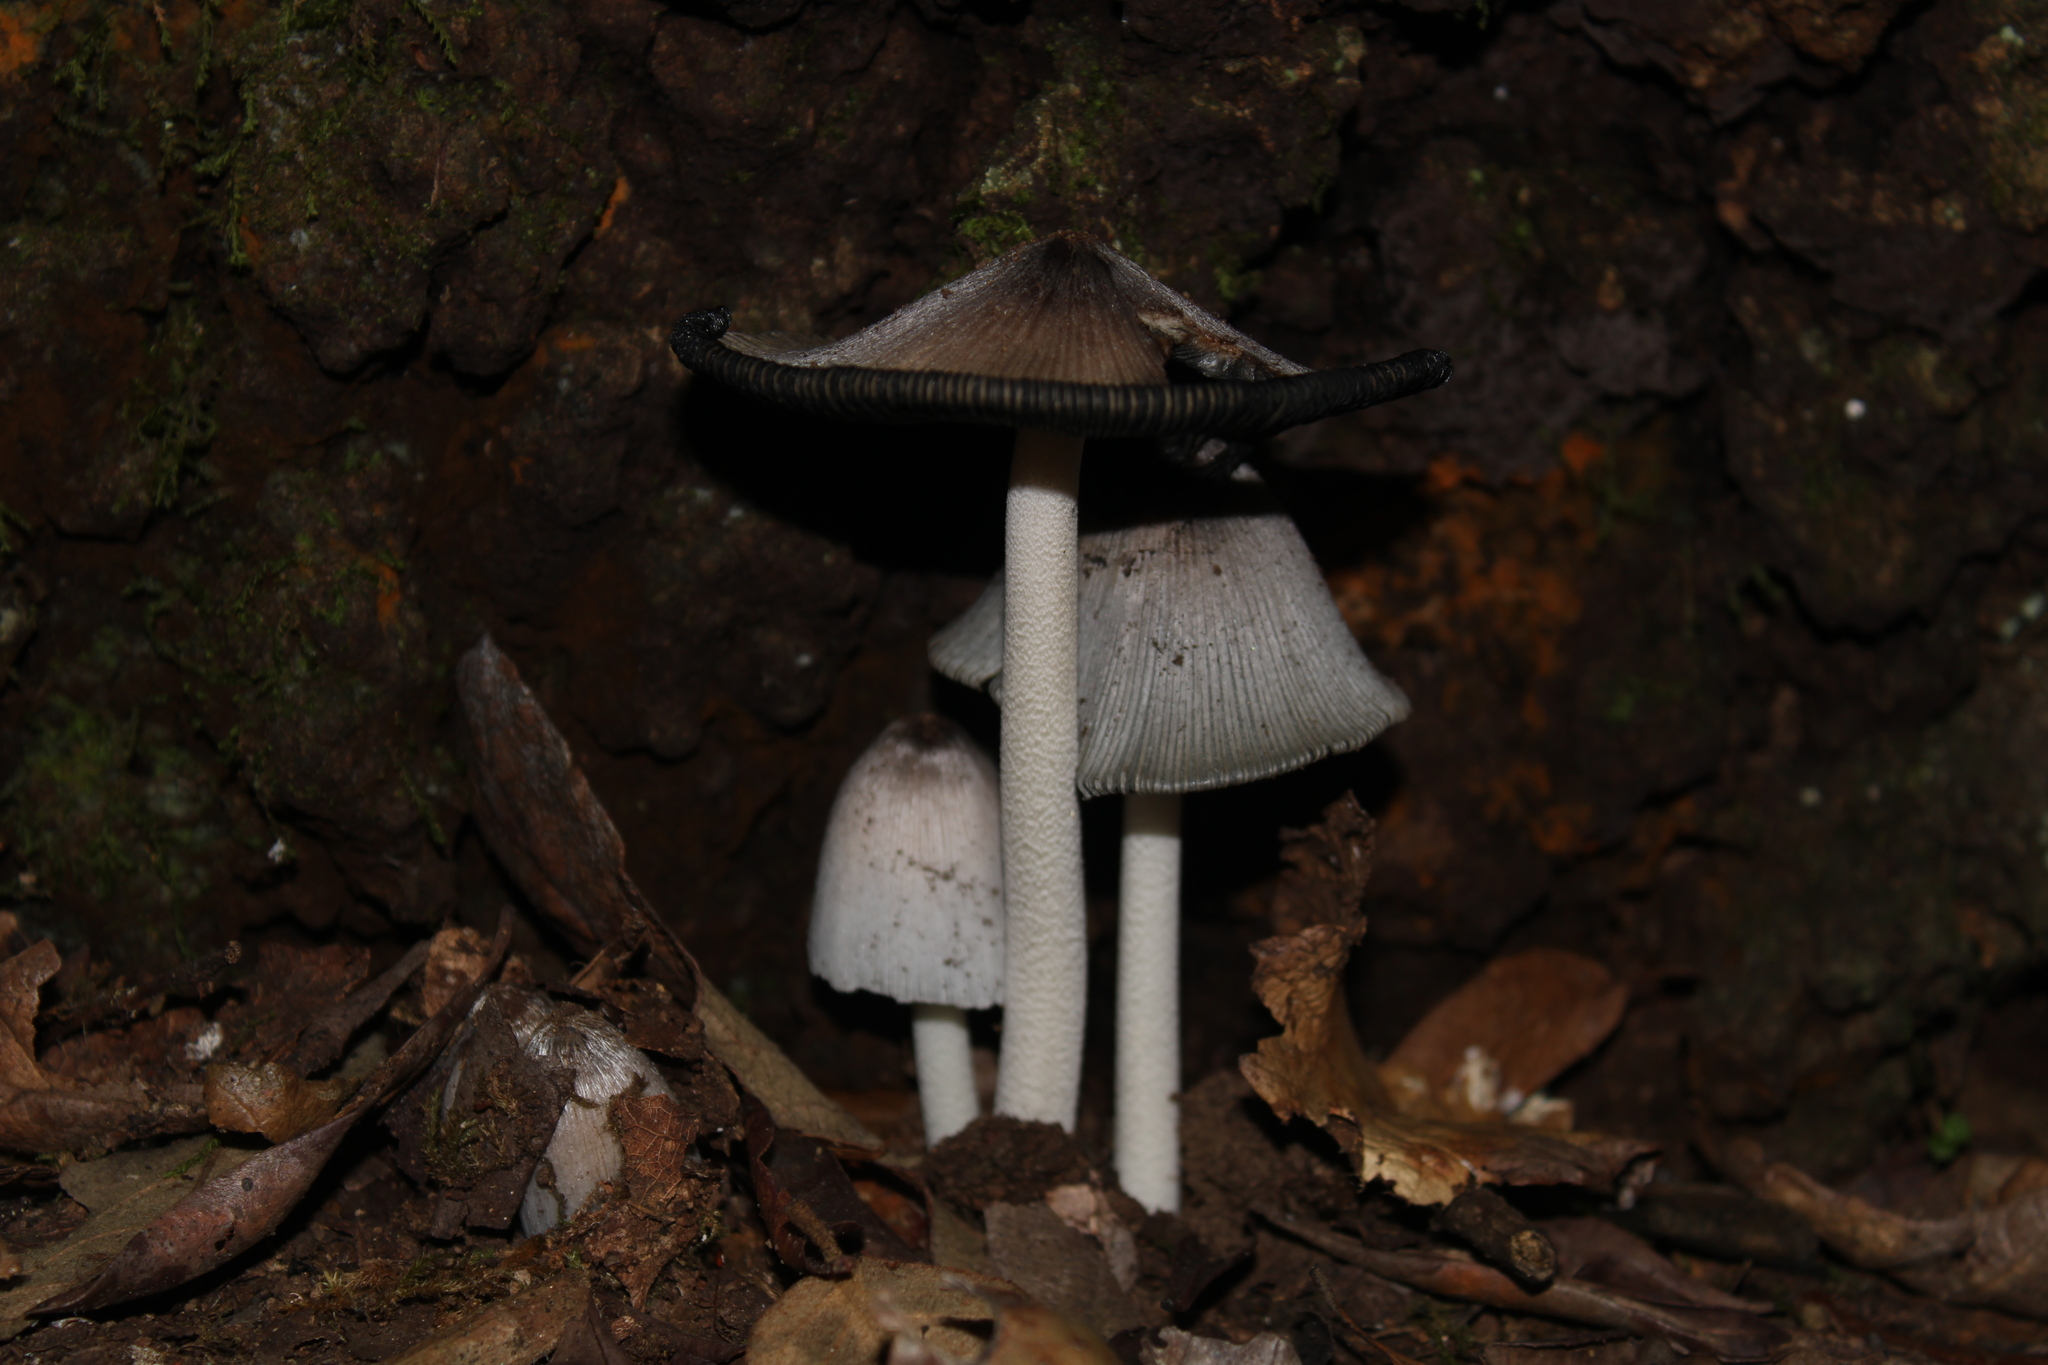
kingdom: Fungi
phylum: Basidiomycota
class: Agaricomycetes
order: Agaricales
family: Psathyrellaceae
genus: Coprinopsis
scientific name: Coprinopsis alopecia
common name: Distinguished inkcap
